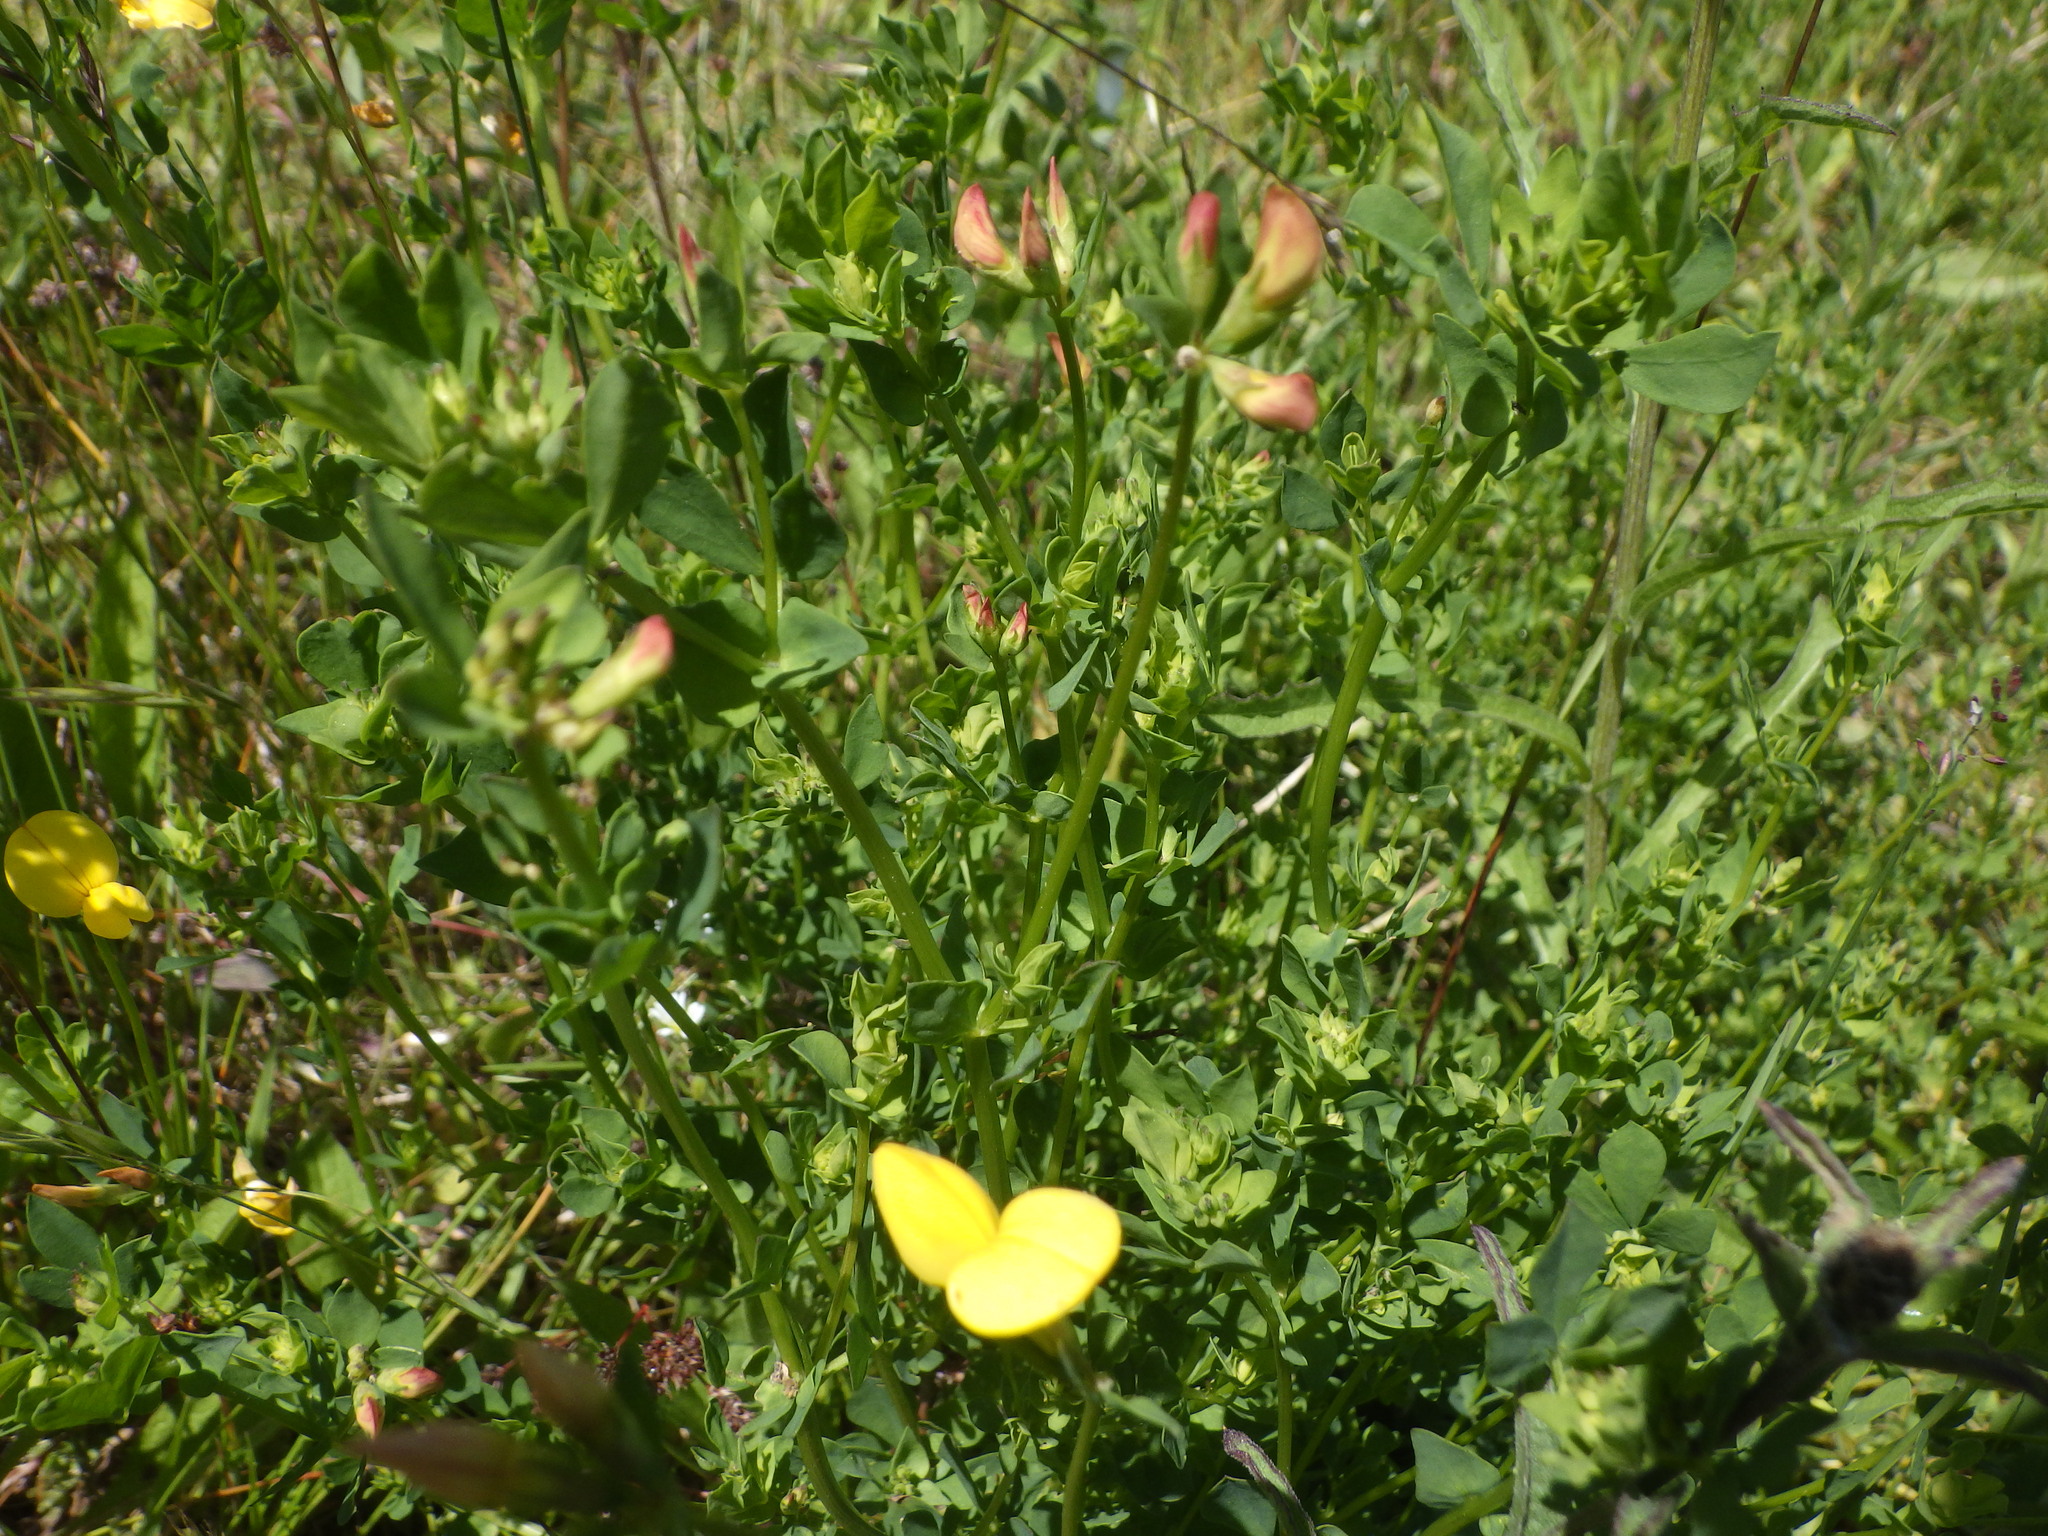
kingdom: Plantae
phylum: Tracheophyta
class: Magnoliopsida
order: Fabales
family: Fabaceae
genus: Lotus
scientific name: Lotus corniculatus
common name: Common bird's-foot-trefoil
